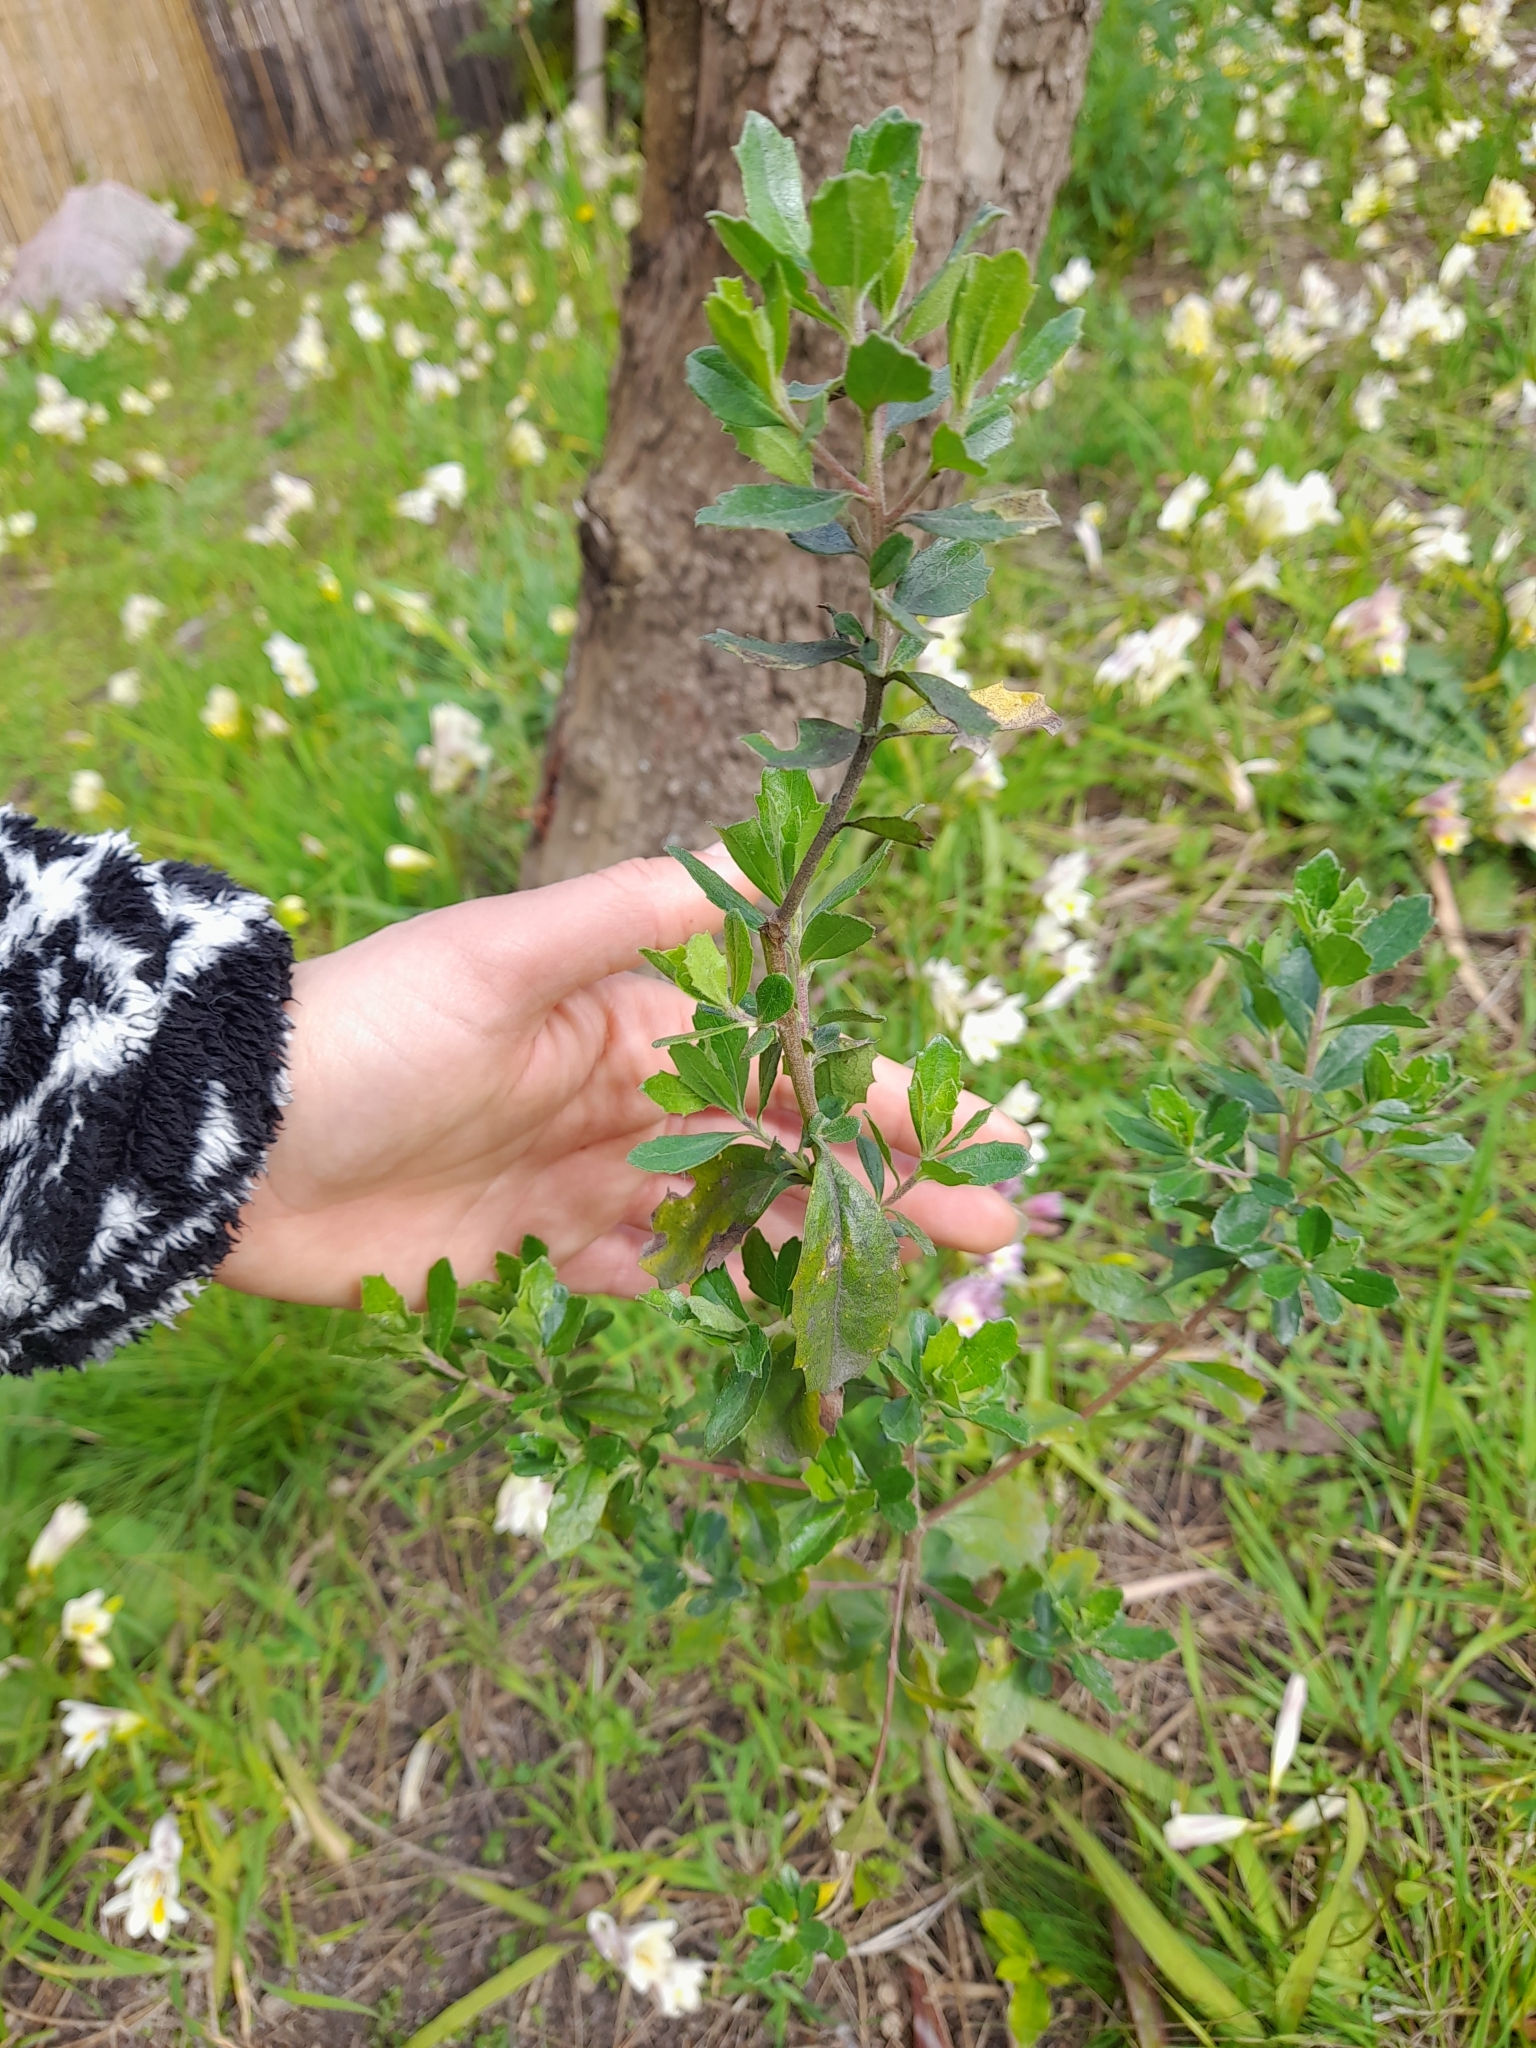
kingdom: Plantae
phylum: Tracheophyta
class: Magnoliopsida
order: Asterales
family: Asteraceae
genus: Baccharis
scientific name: Baccharis dracunculifolia
